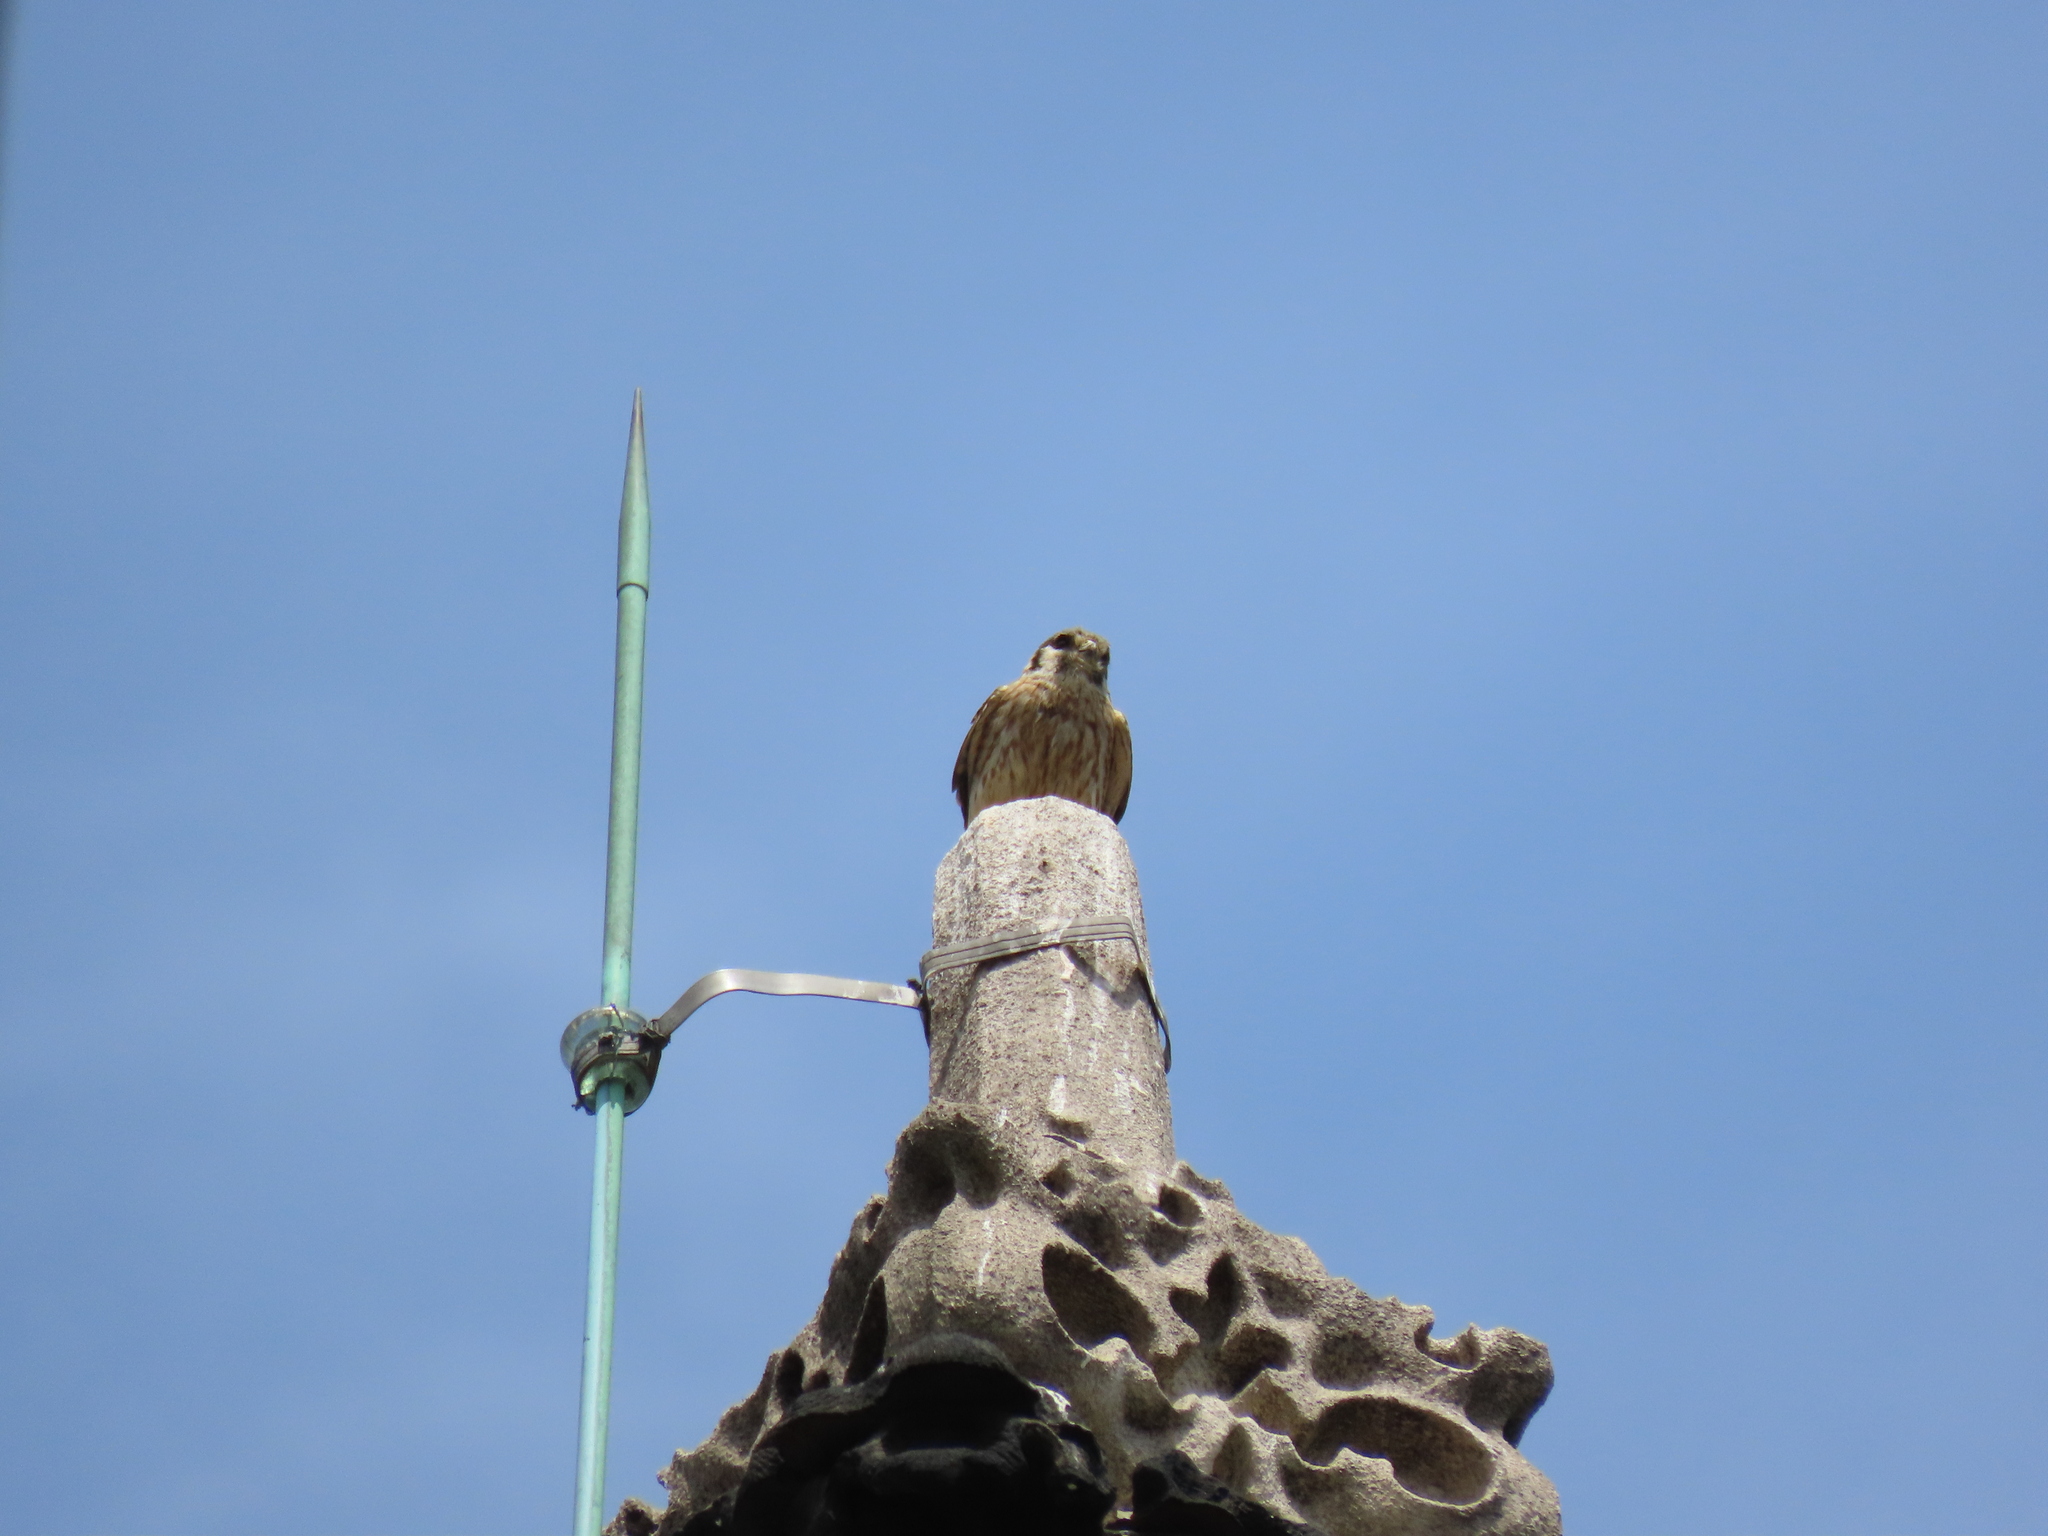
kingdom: Animalia
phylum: Chordata
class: Aves
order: Falconiformes
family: Falconidae
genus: Falco
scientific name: Falco sparverius
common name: American kestrel
